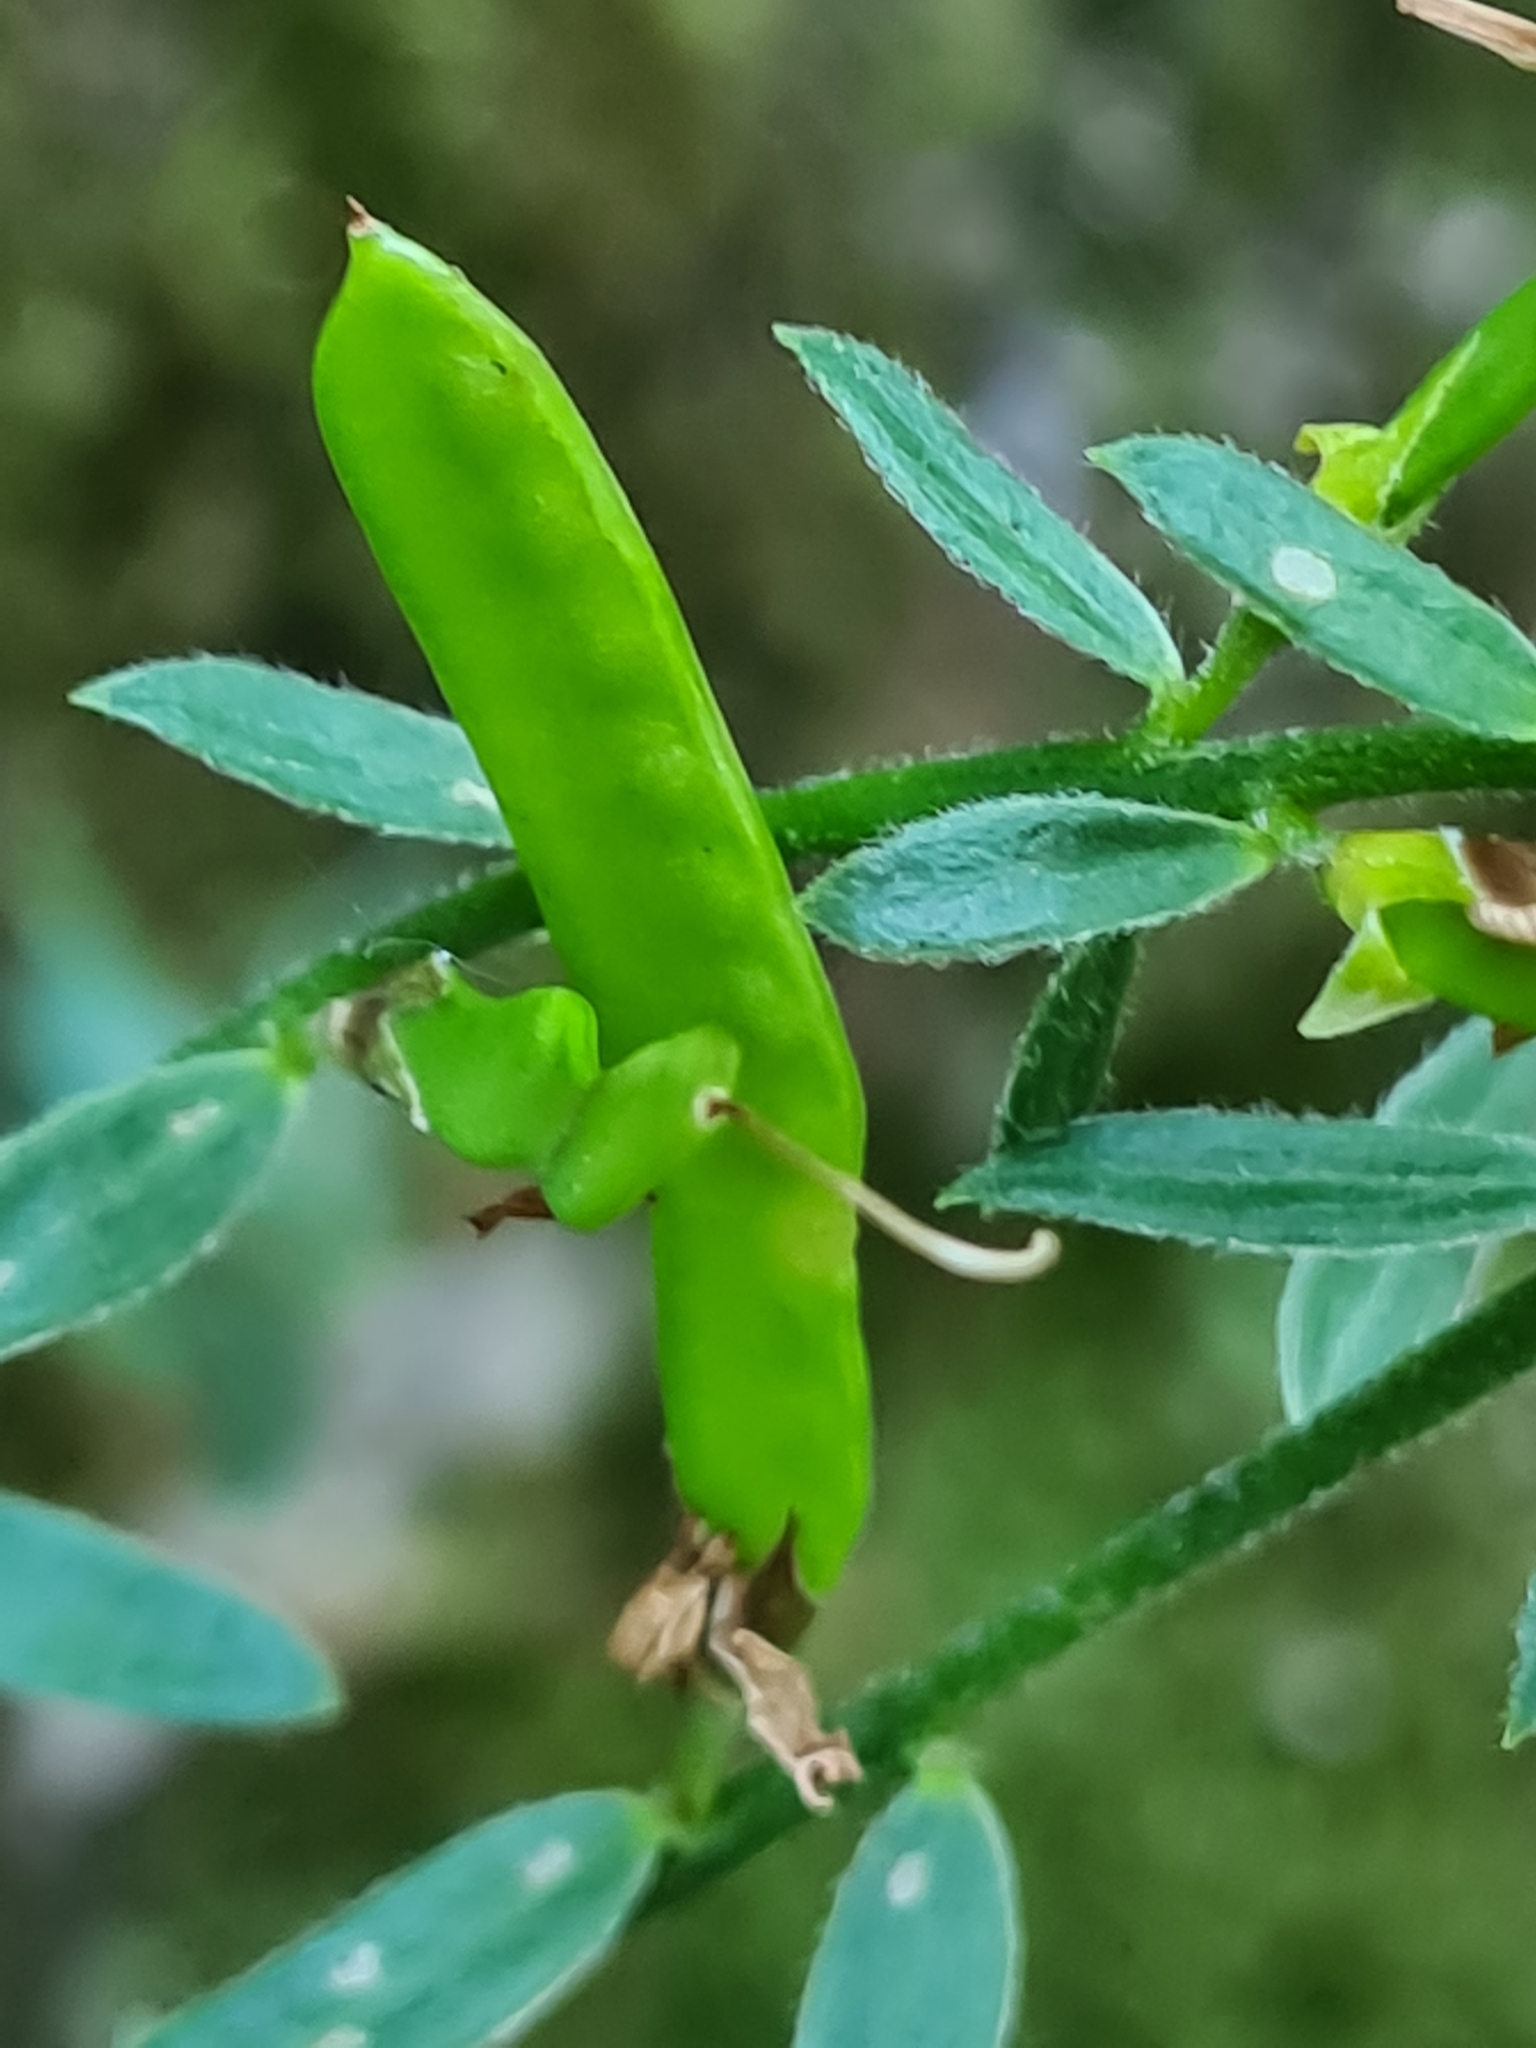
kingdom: Plantae
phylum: Tracheophyta
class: Magnoliopsida
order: Fabales
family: Fabaceae
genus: Genista
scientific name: Genista tinctoria
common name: Dyer's greenweed
